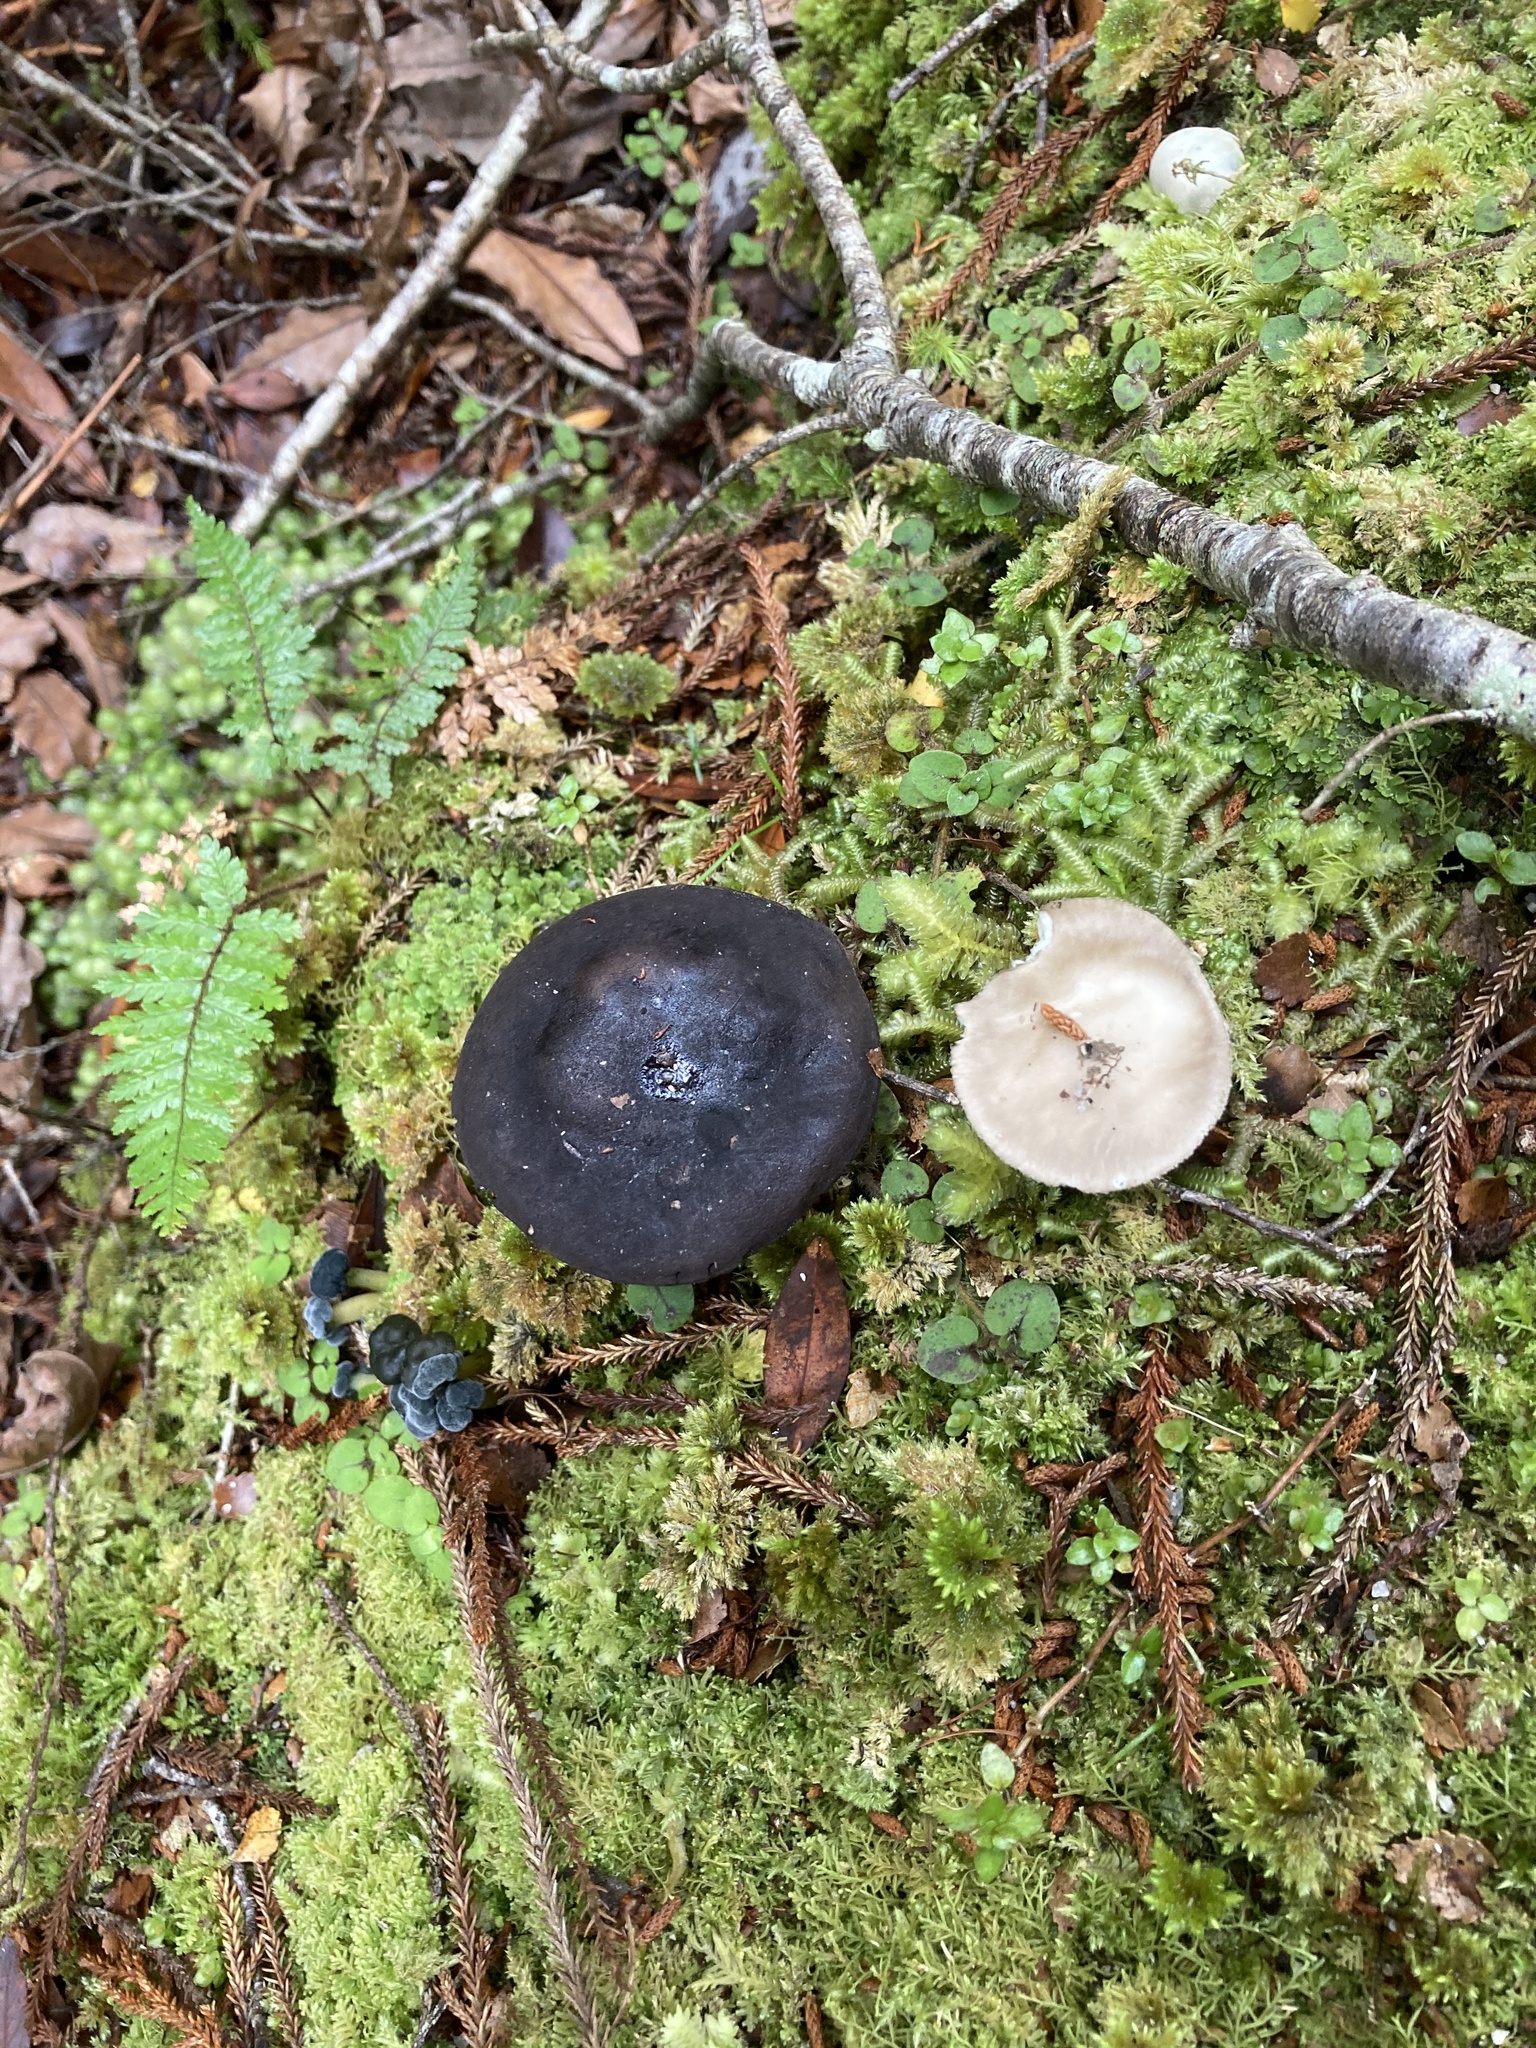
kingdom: Fungi
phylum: Basidiomycota
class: Agaricomycetes
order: Boletales
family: Boletaceae
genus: Porphyrellus
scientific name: Porphyrellus formosus
